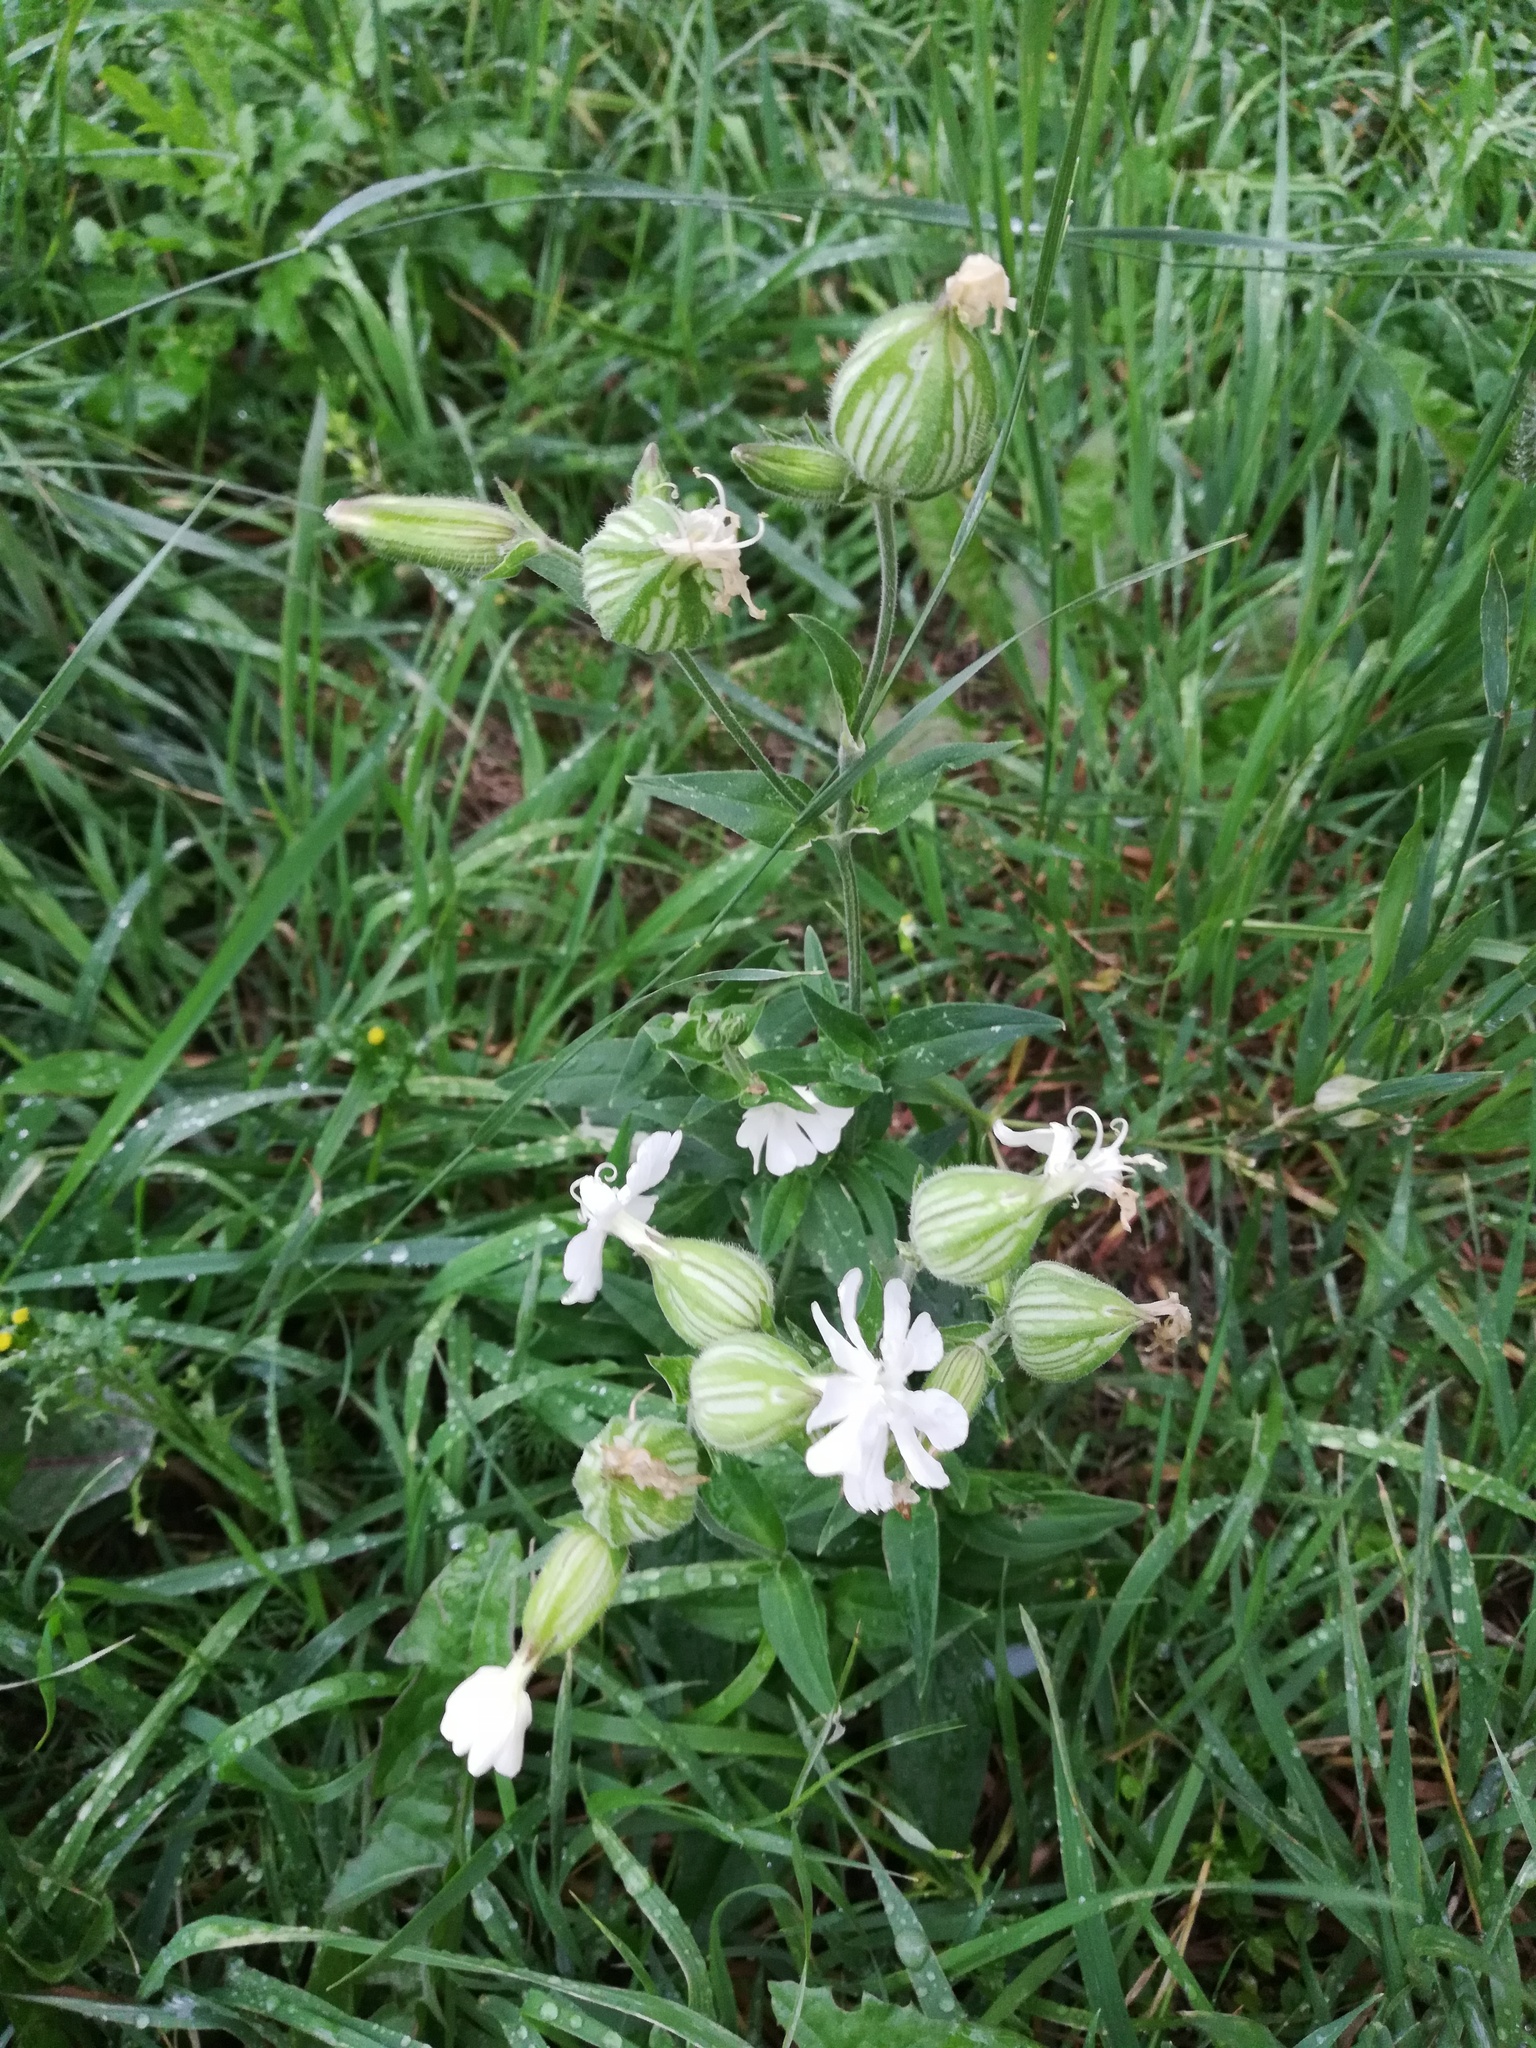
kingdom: Plantae
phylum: Tracheophyta
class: Magnoliopsida
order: Caryophyllales
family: Caryophyllaceae
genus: Silene
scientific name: Silene latifolia
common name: White campion
